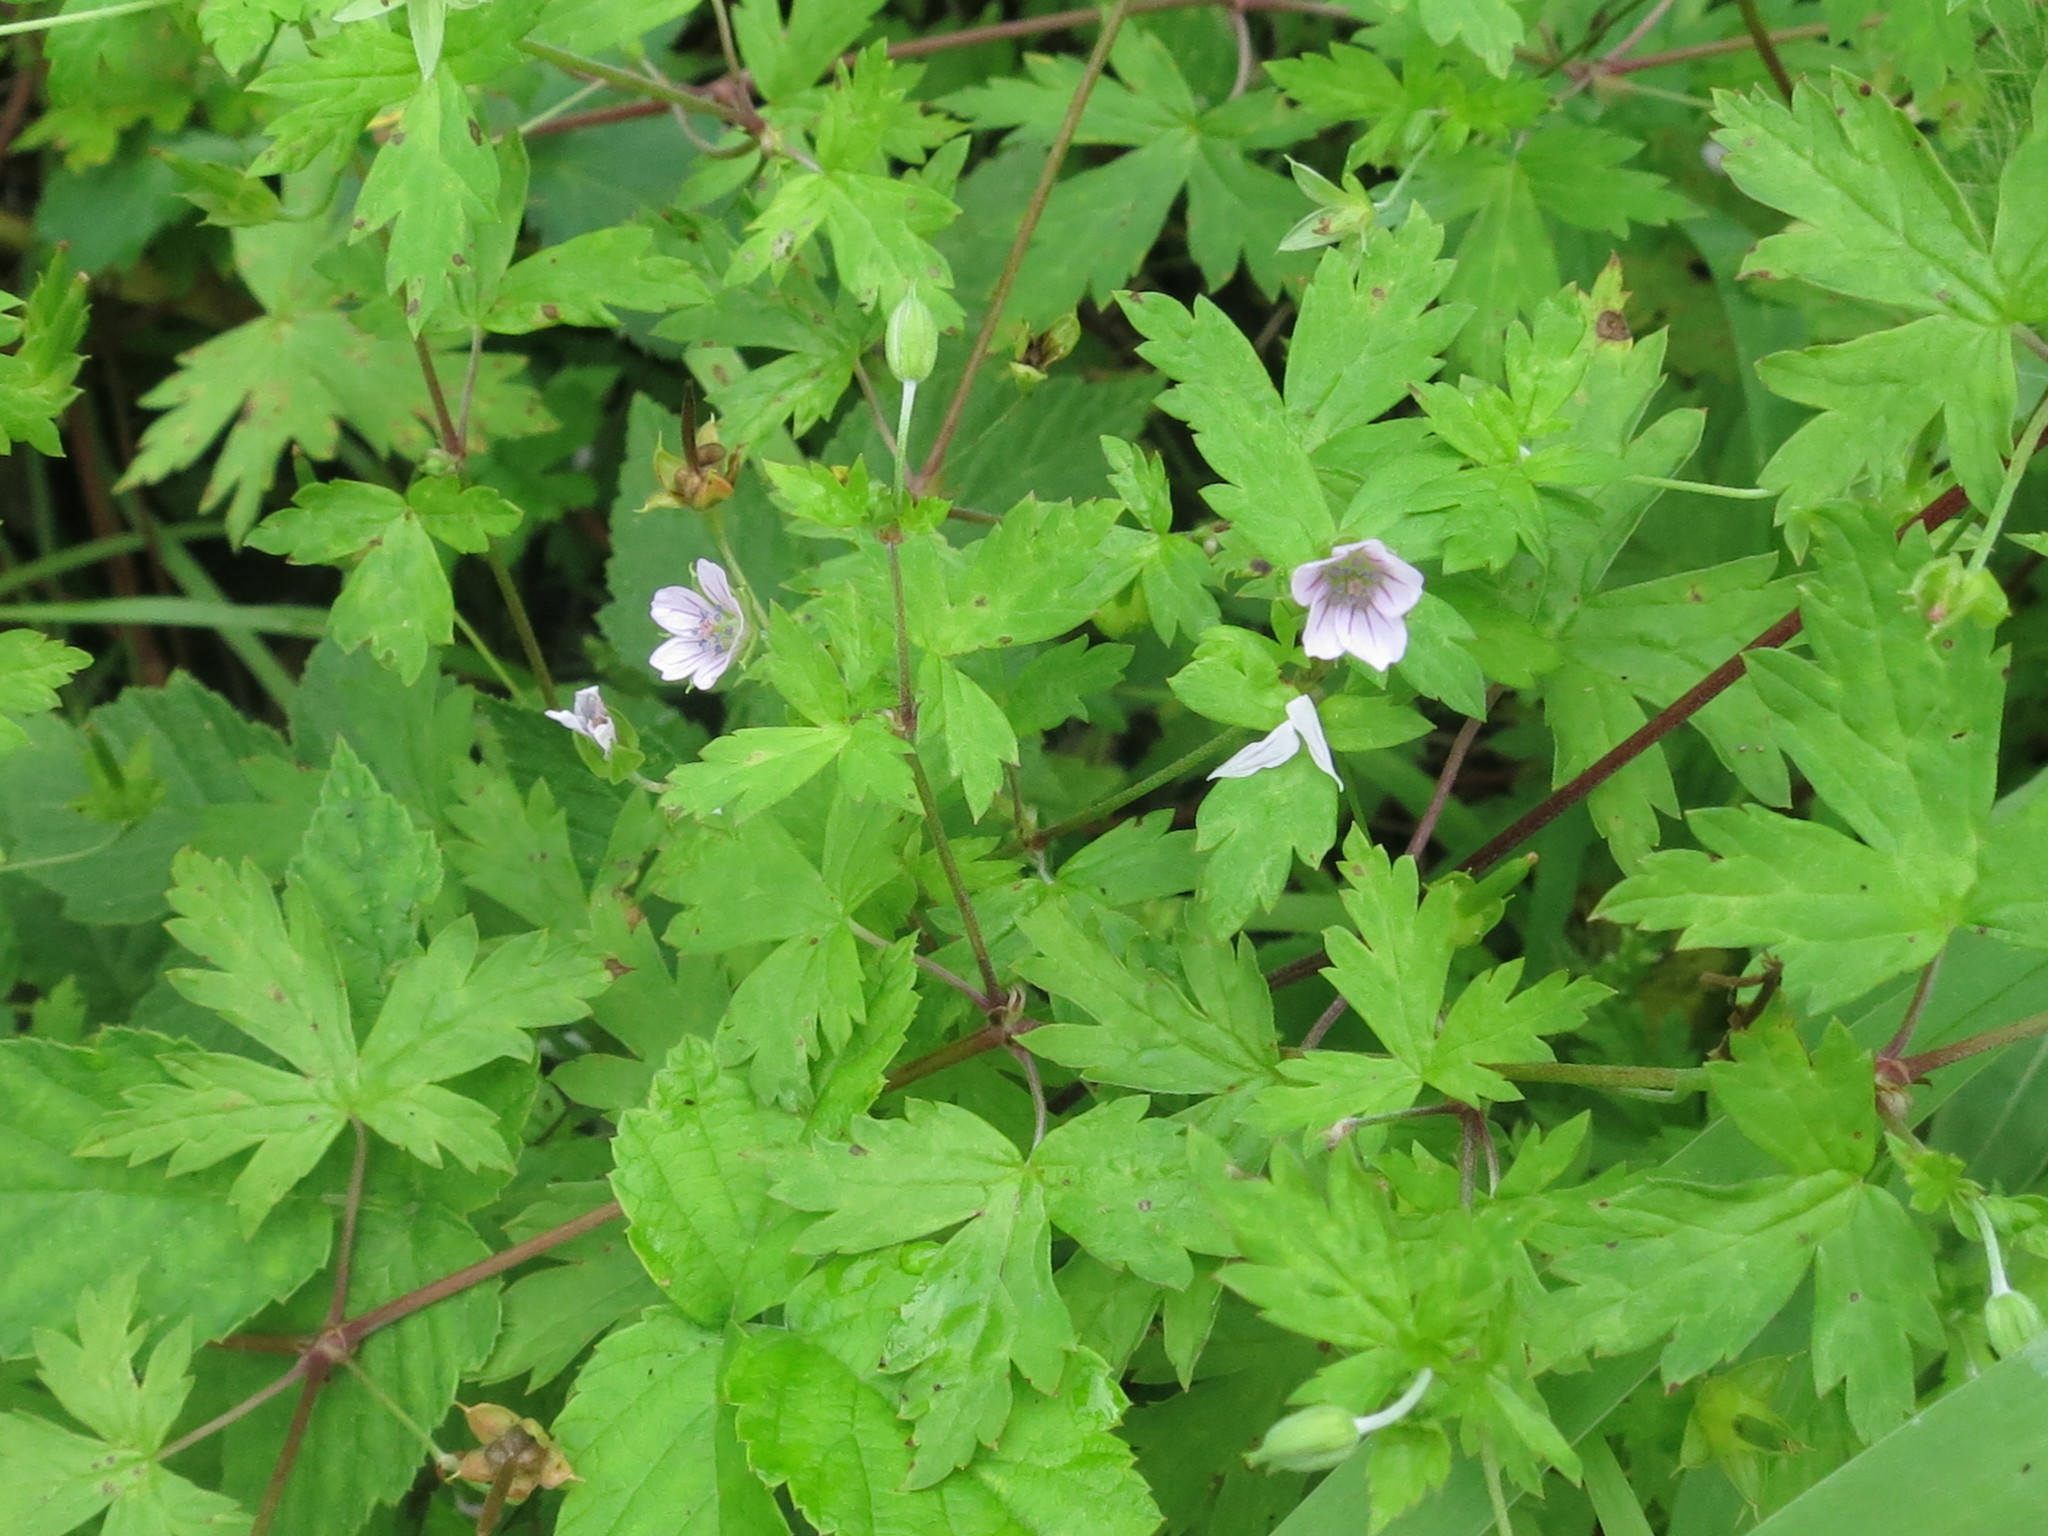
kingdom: Plantae
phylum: Tracheophyta
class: Magnoliopsida
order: Geraniales
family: Geraniaceae
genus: Geranium
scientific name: Geranium sibiricum
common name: Siberian crane's-bill
